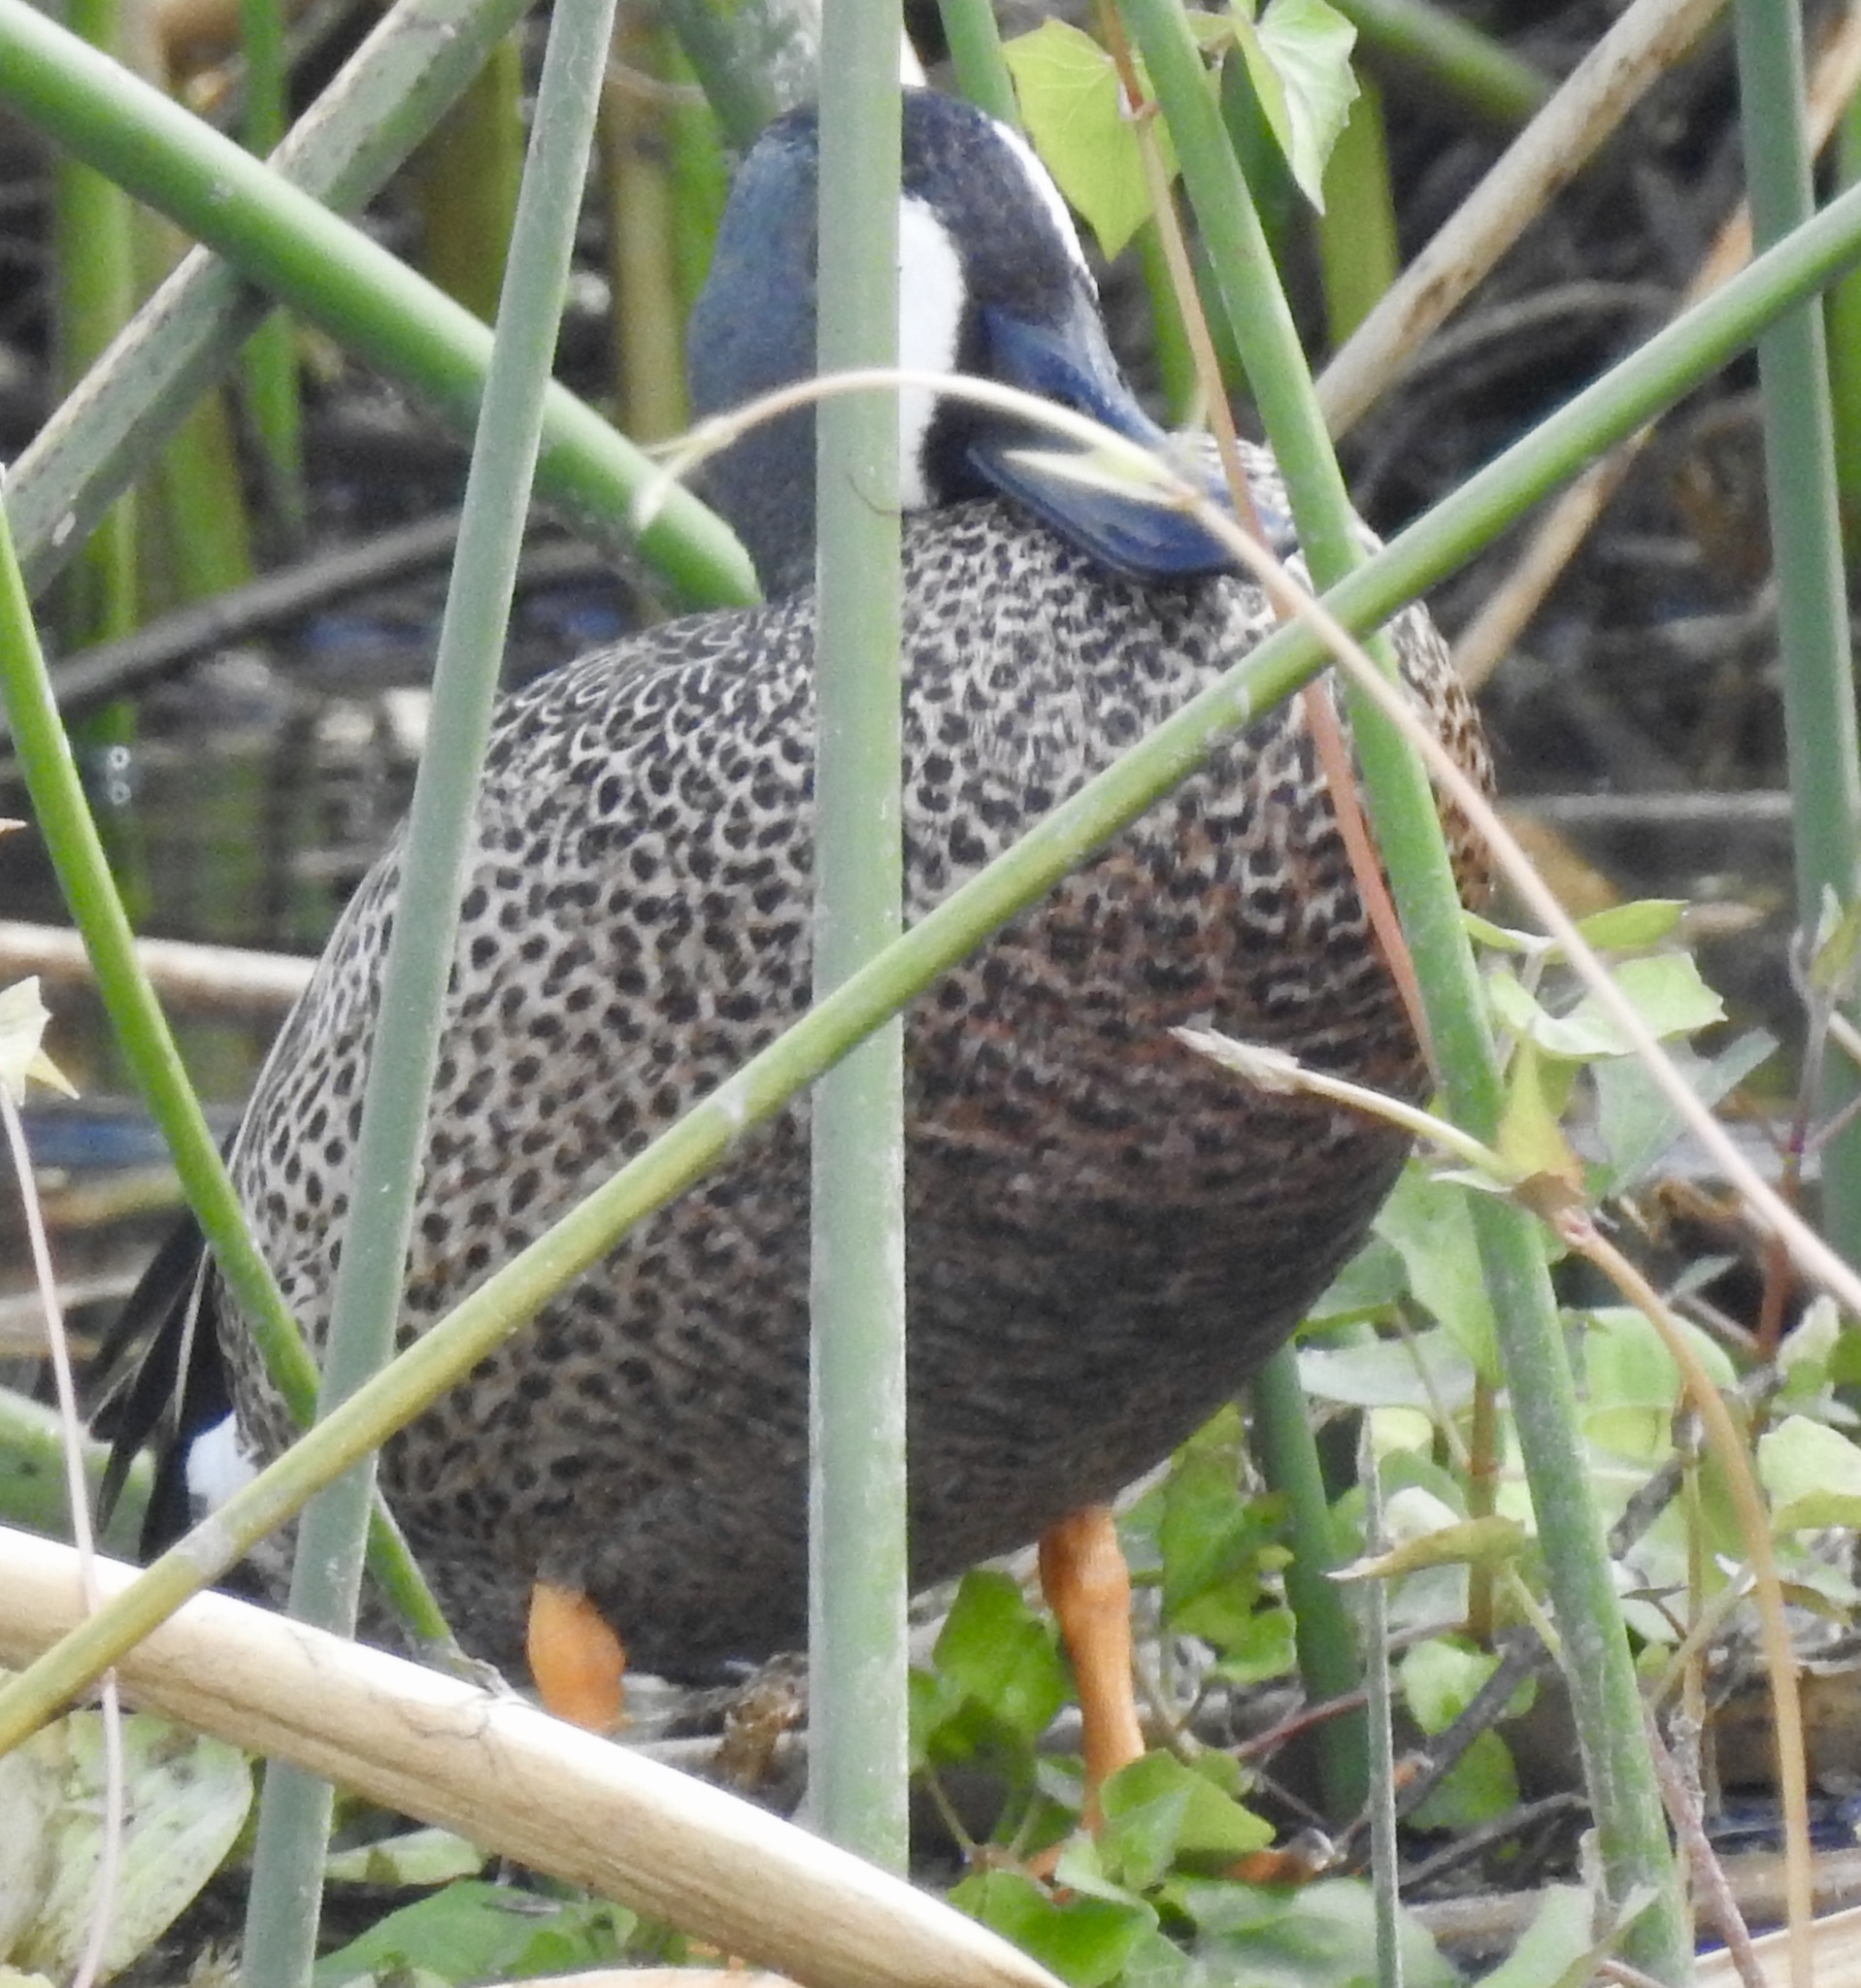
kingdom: Animalia
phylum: Chordata
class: Aves
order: Anseriformes
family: Anatidae
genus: Spatula
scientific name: Spatula discors
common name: Blue-winged teal
